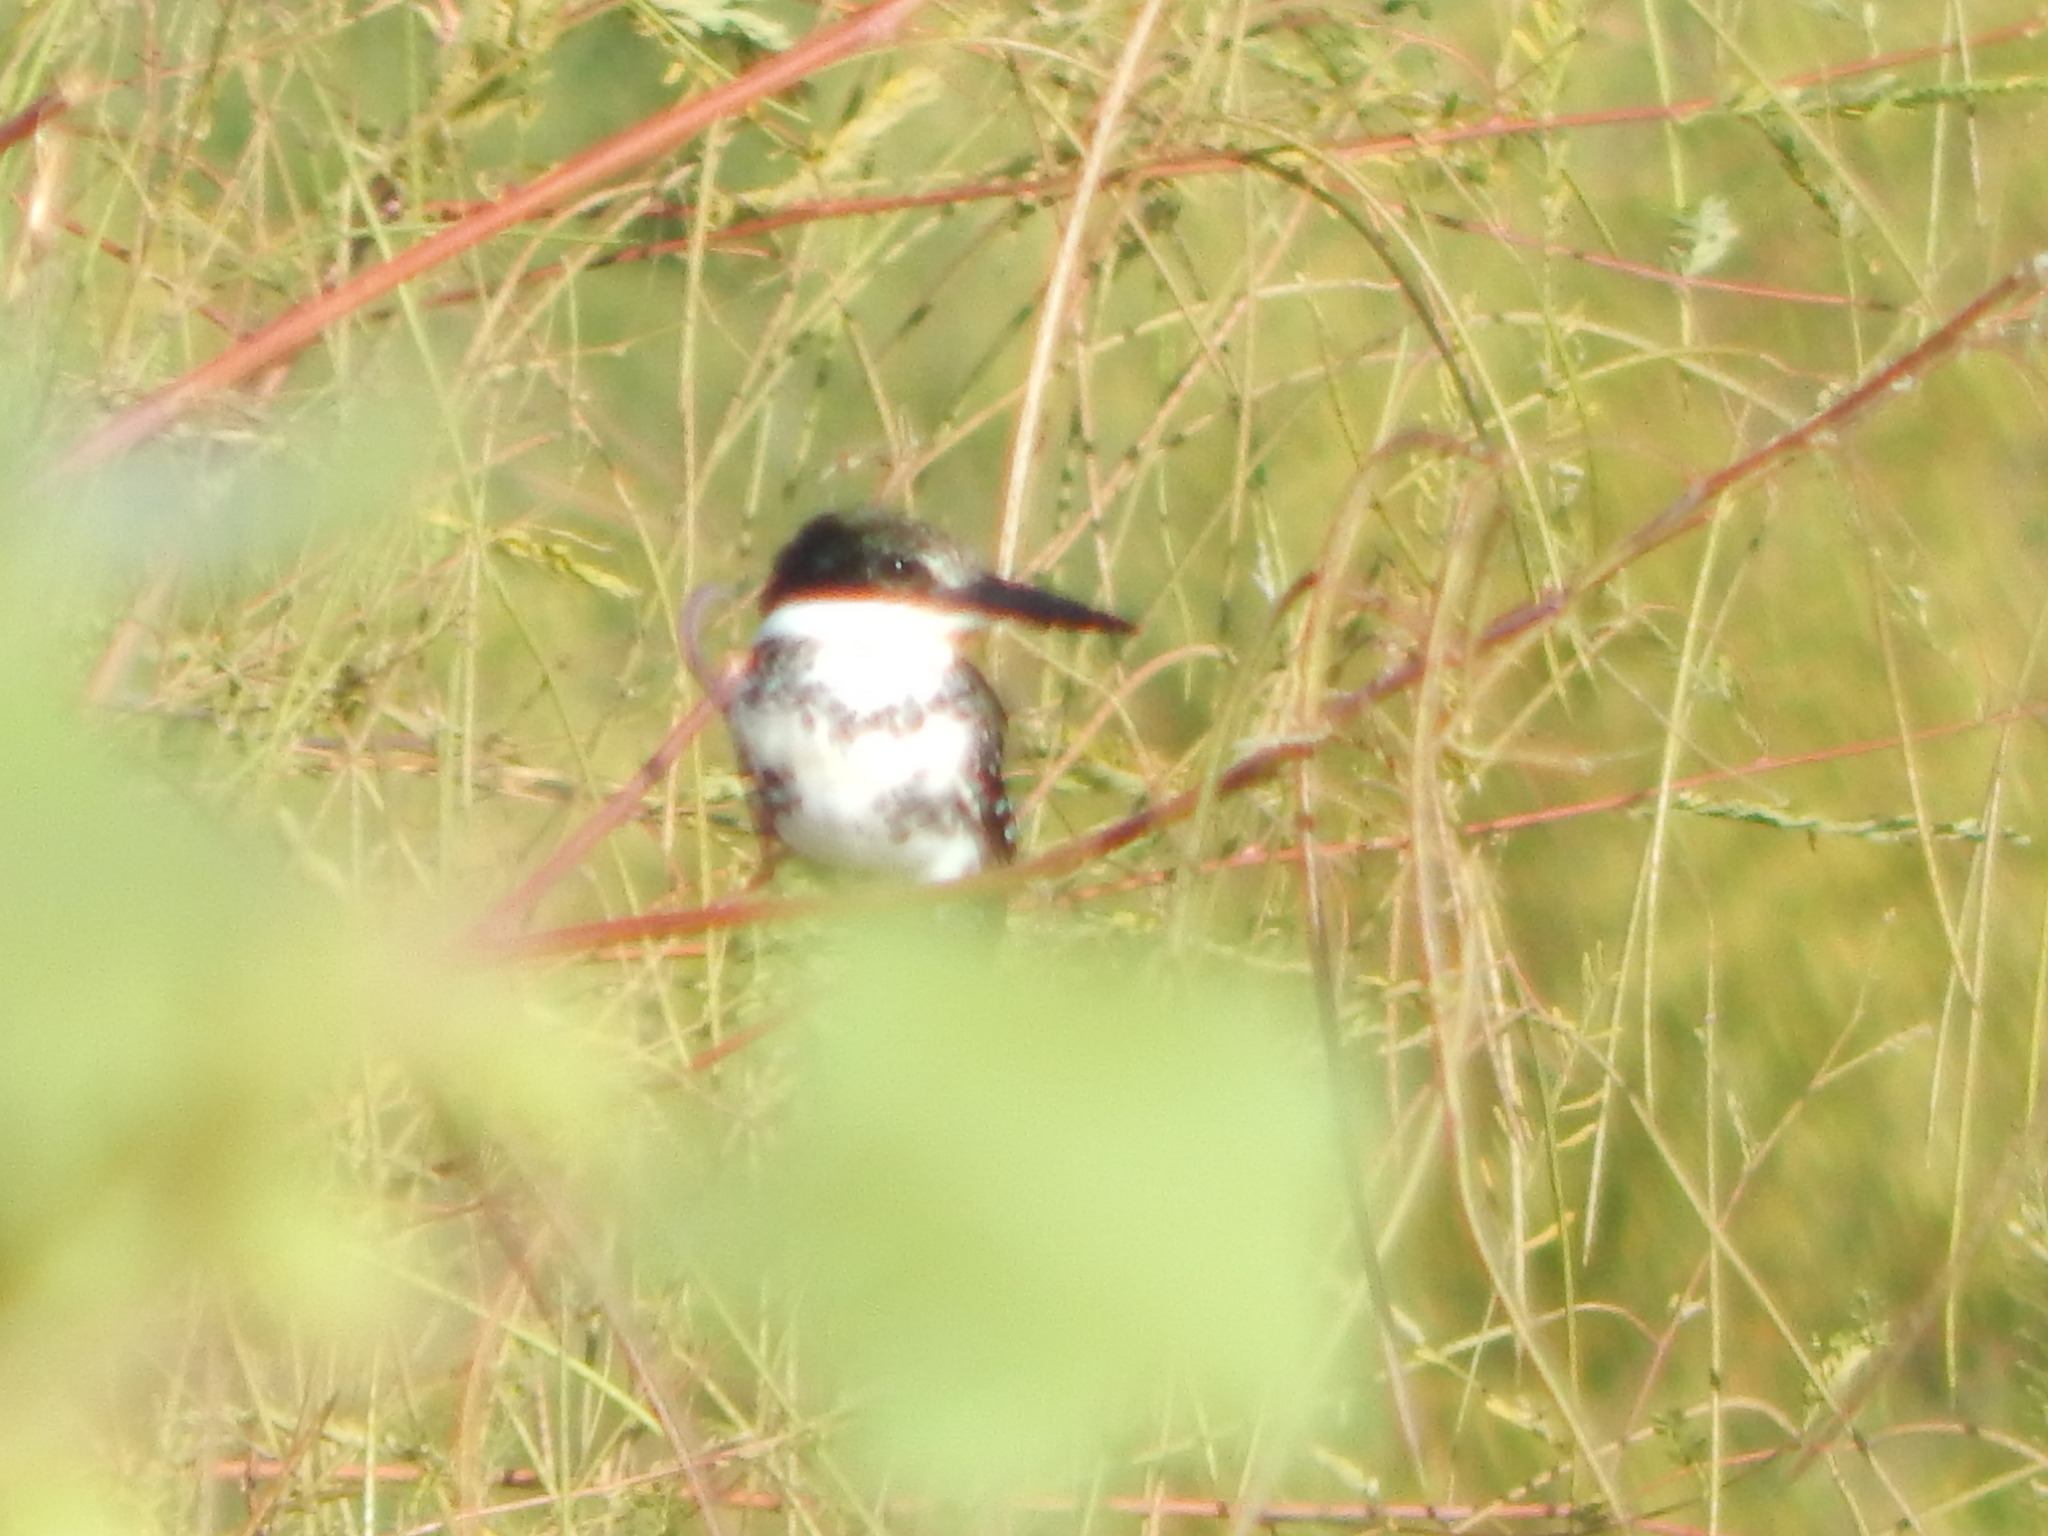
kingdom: Animalia
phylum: Chordata
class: Aves
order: Coraciiformes
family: Alcedinidae
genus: Chloroceryle
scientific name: Chloroceryle americana
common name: Green kingfisher
